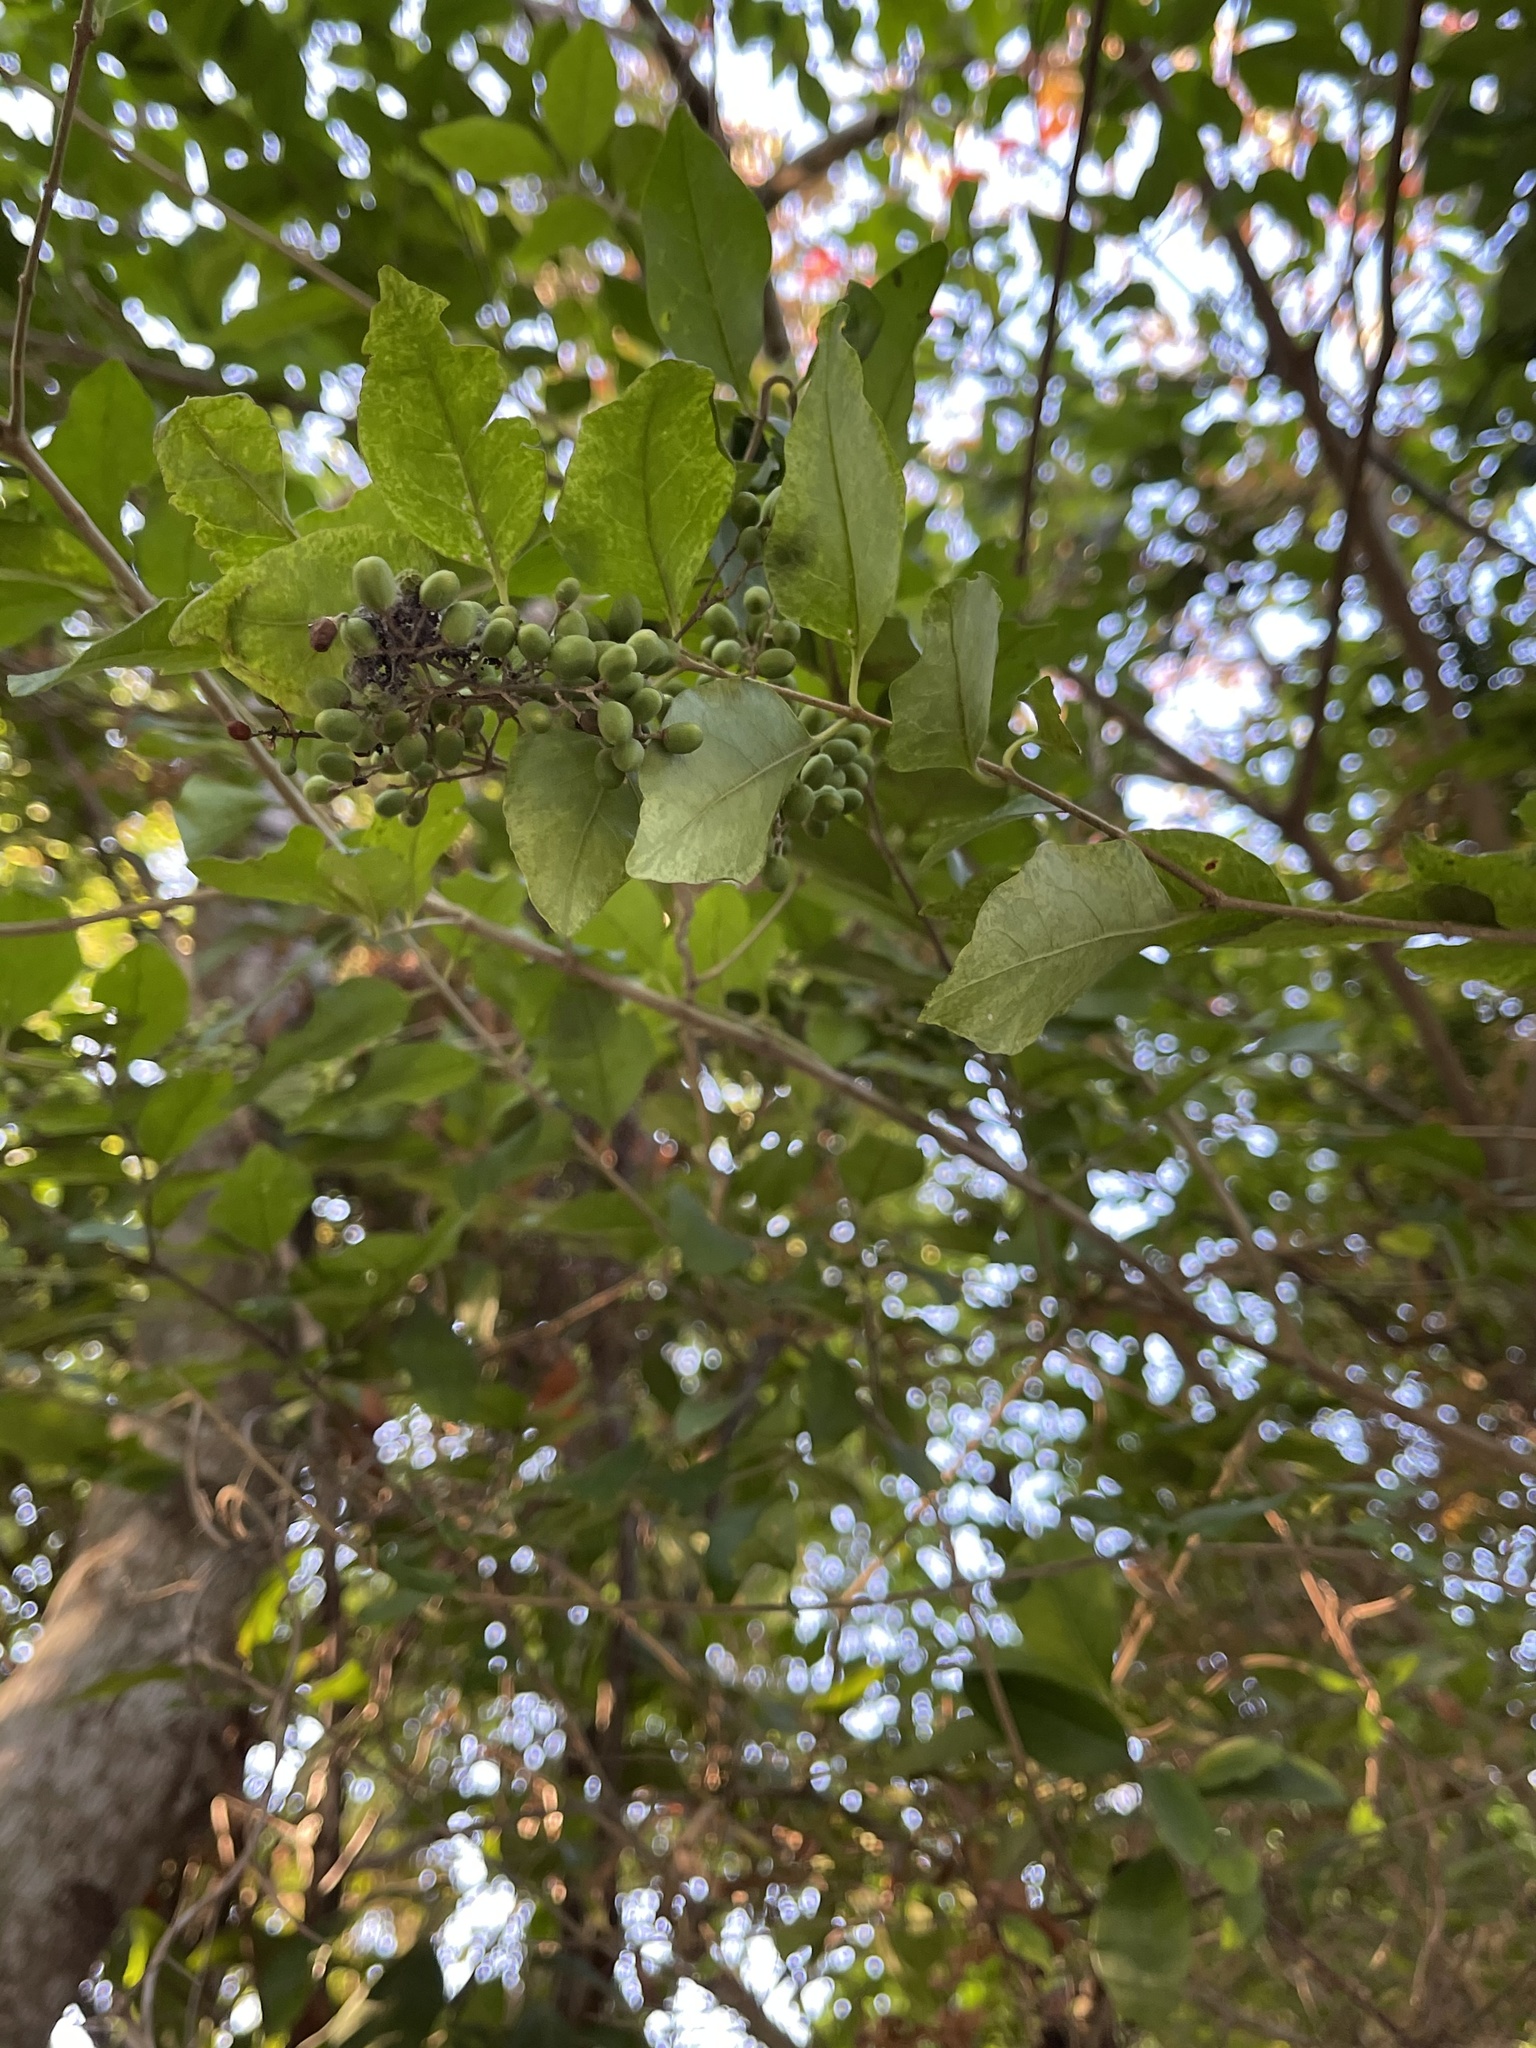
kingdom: Plantae
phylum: Tracheophyta
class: Magnoliopsida
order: Lamiales
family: Oleaceae
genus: Ligustrum
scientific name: Ligustrum sinense
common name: Chinese privet
